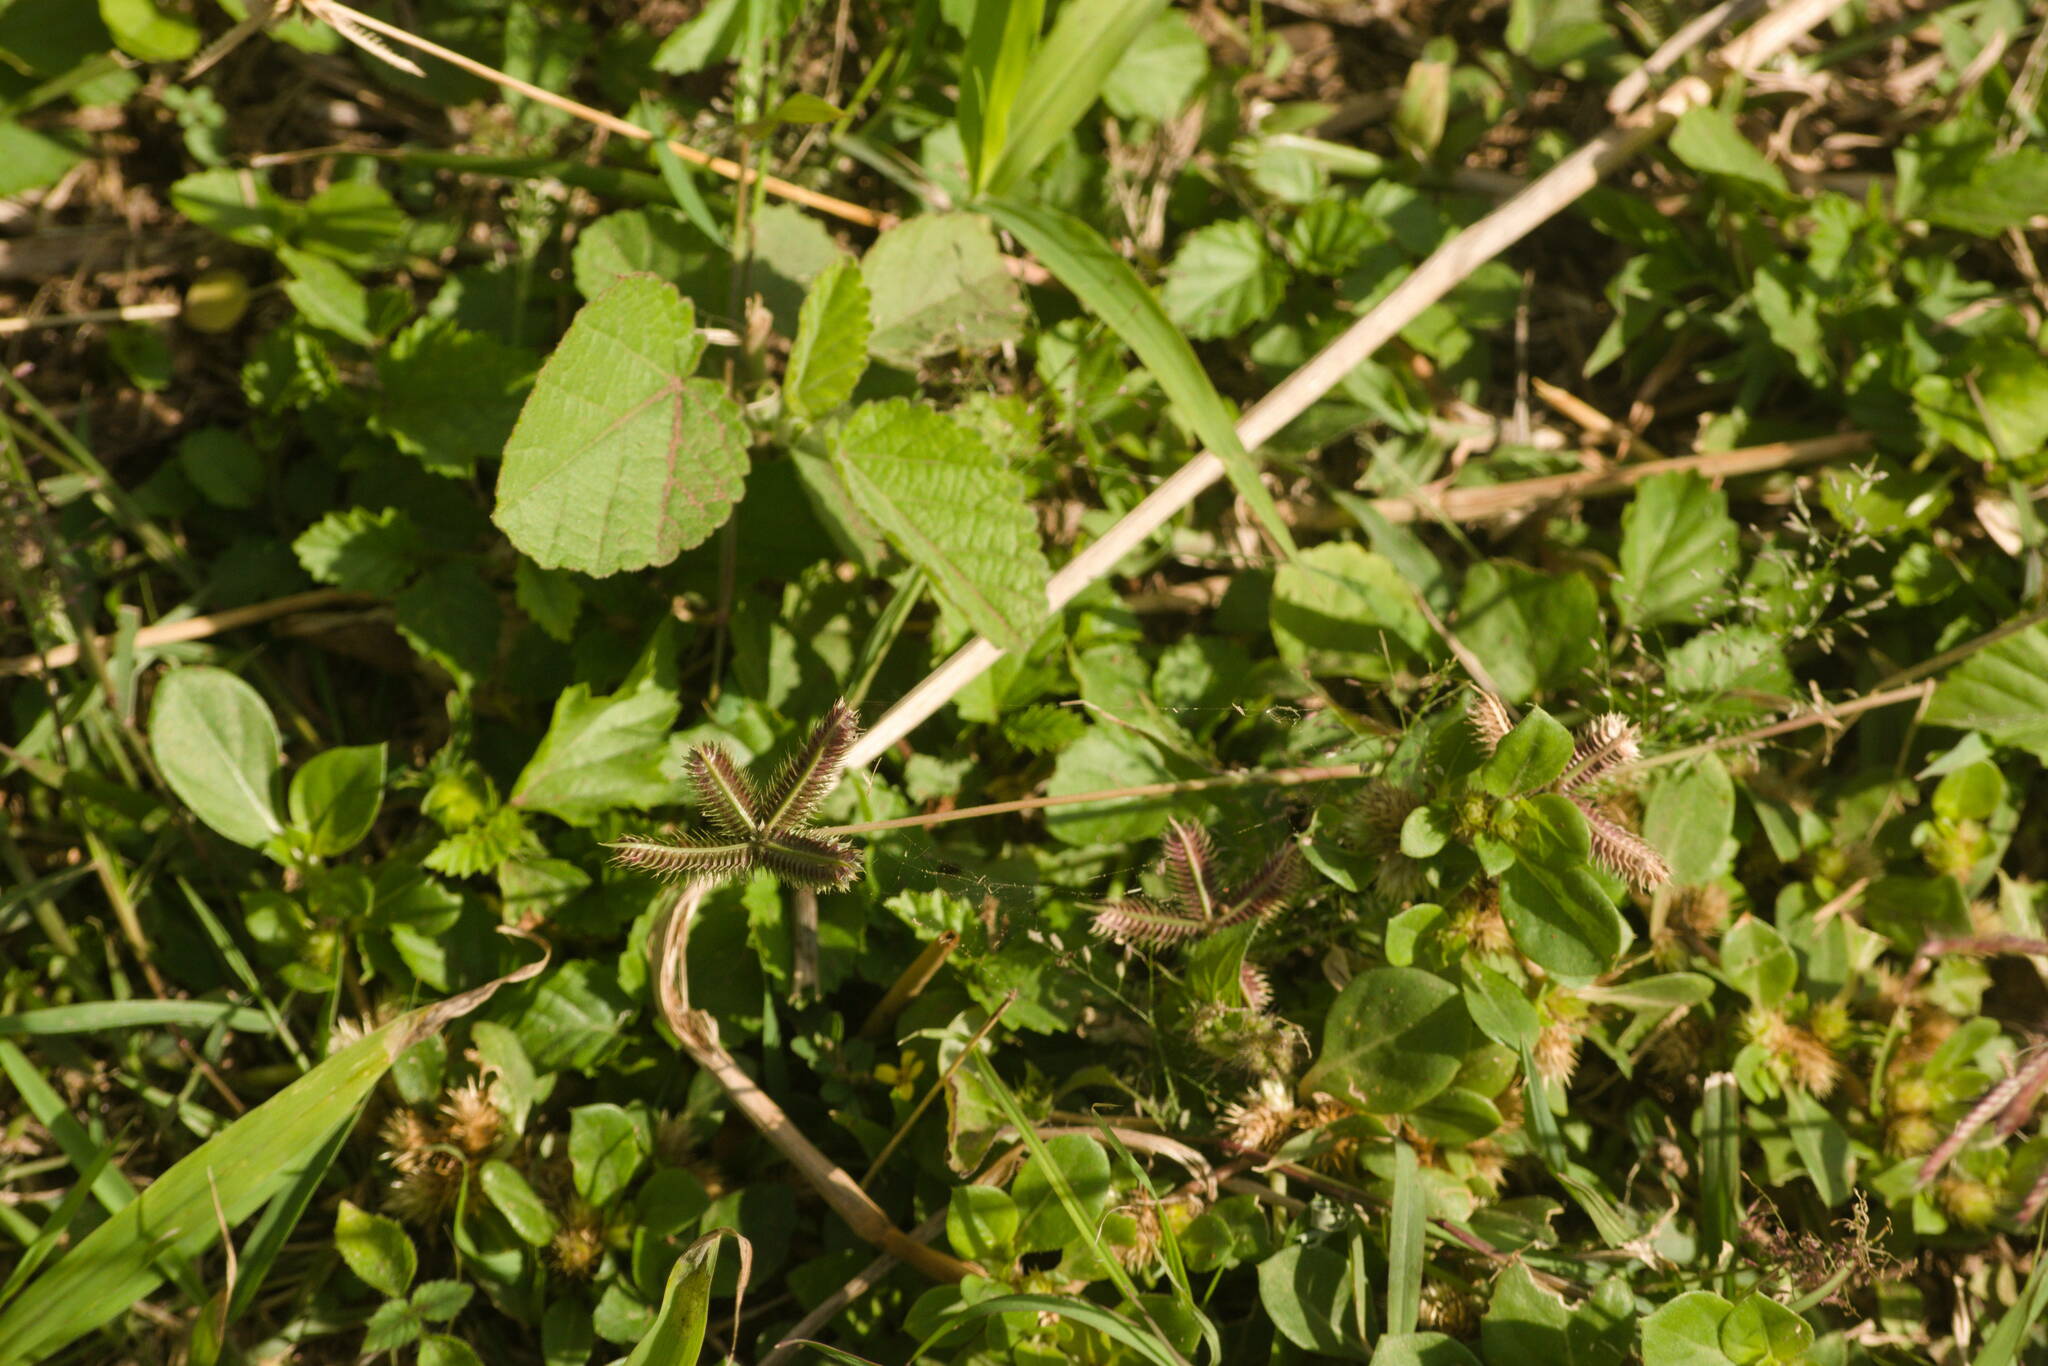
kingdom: Plantae
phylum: Tracheophyta
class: Liliopsida
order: Poales
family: Poaceae
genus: Dactyloctenium
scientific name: Dactyloctenium aegyptium
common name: Egyptian grass
